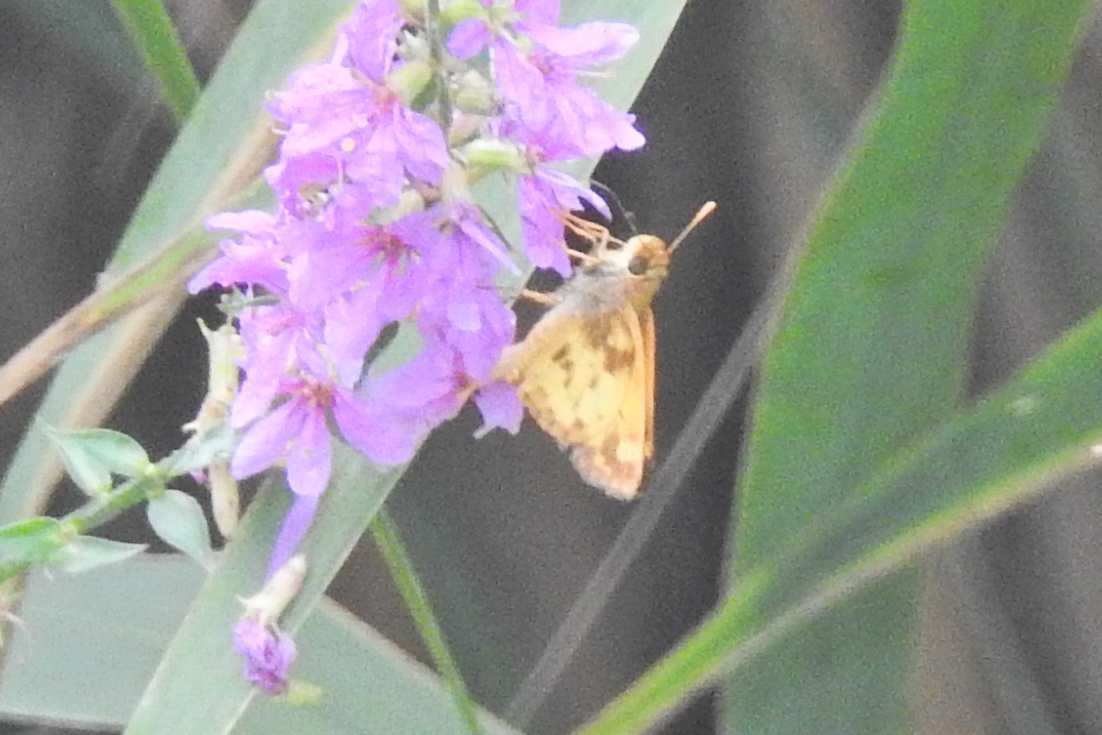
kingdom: Animalia
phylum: Arthropoda
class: Insecta
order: Lepidoptera
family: Hesperiidae
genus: Lon
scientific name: Lon zabulon
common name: Zabulon skipper
